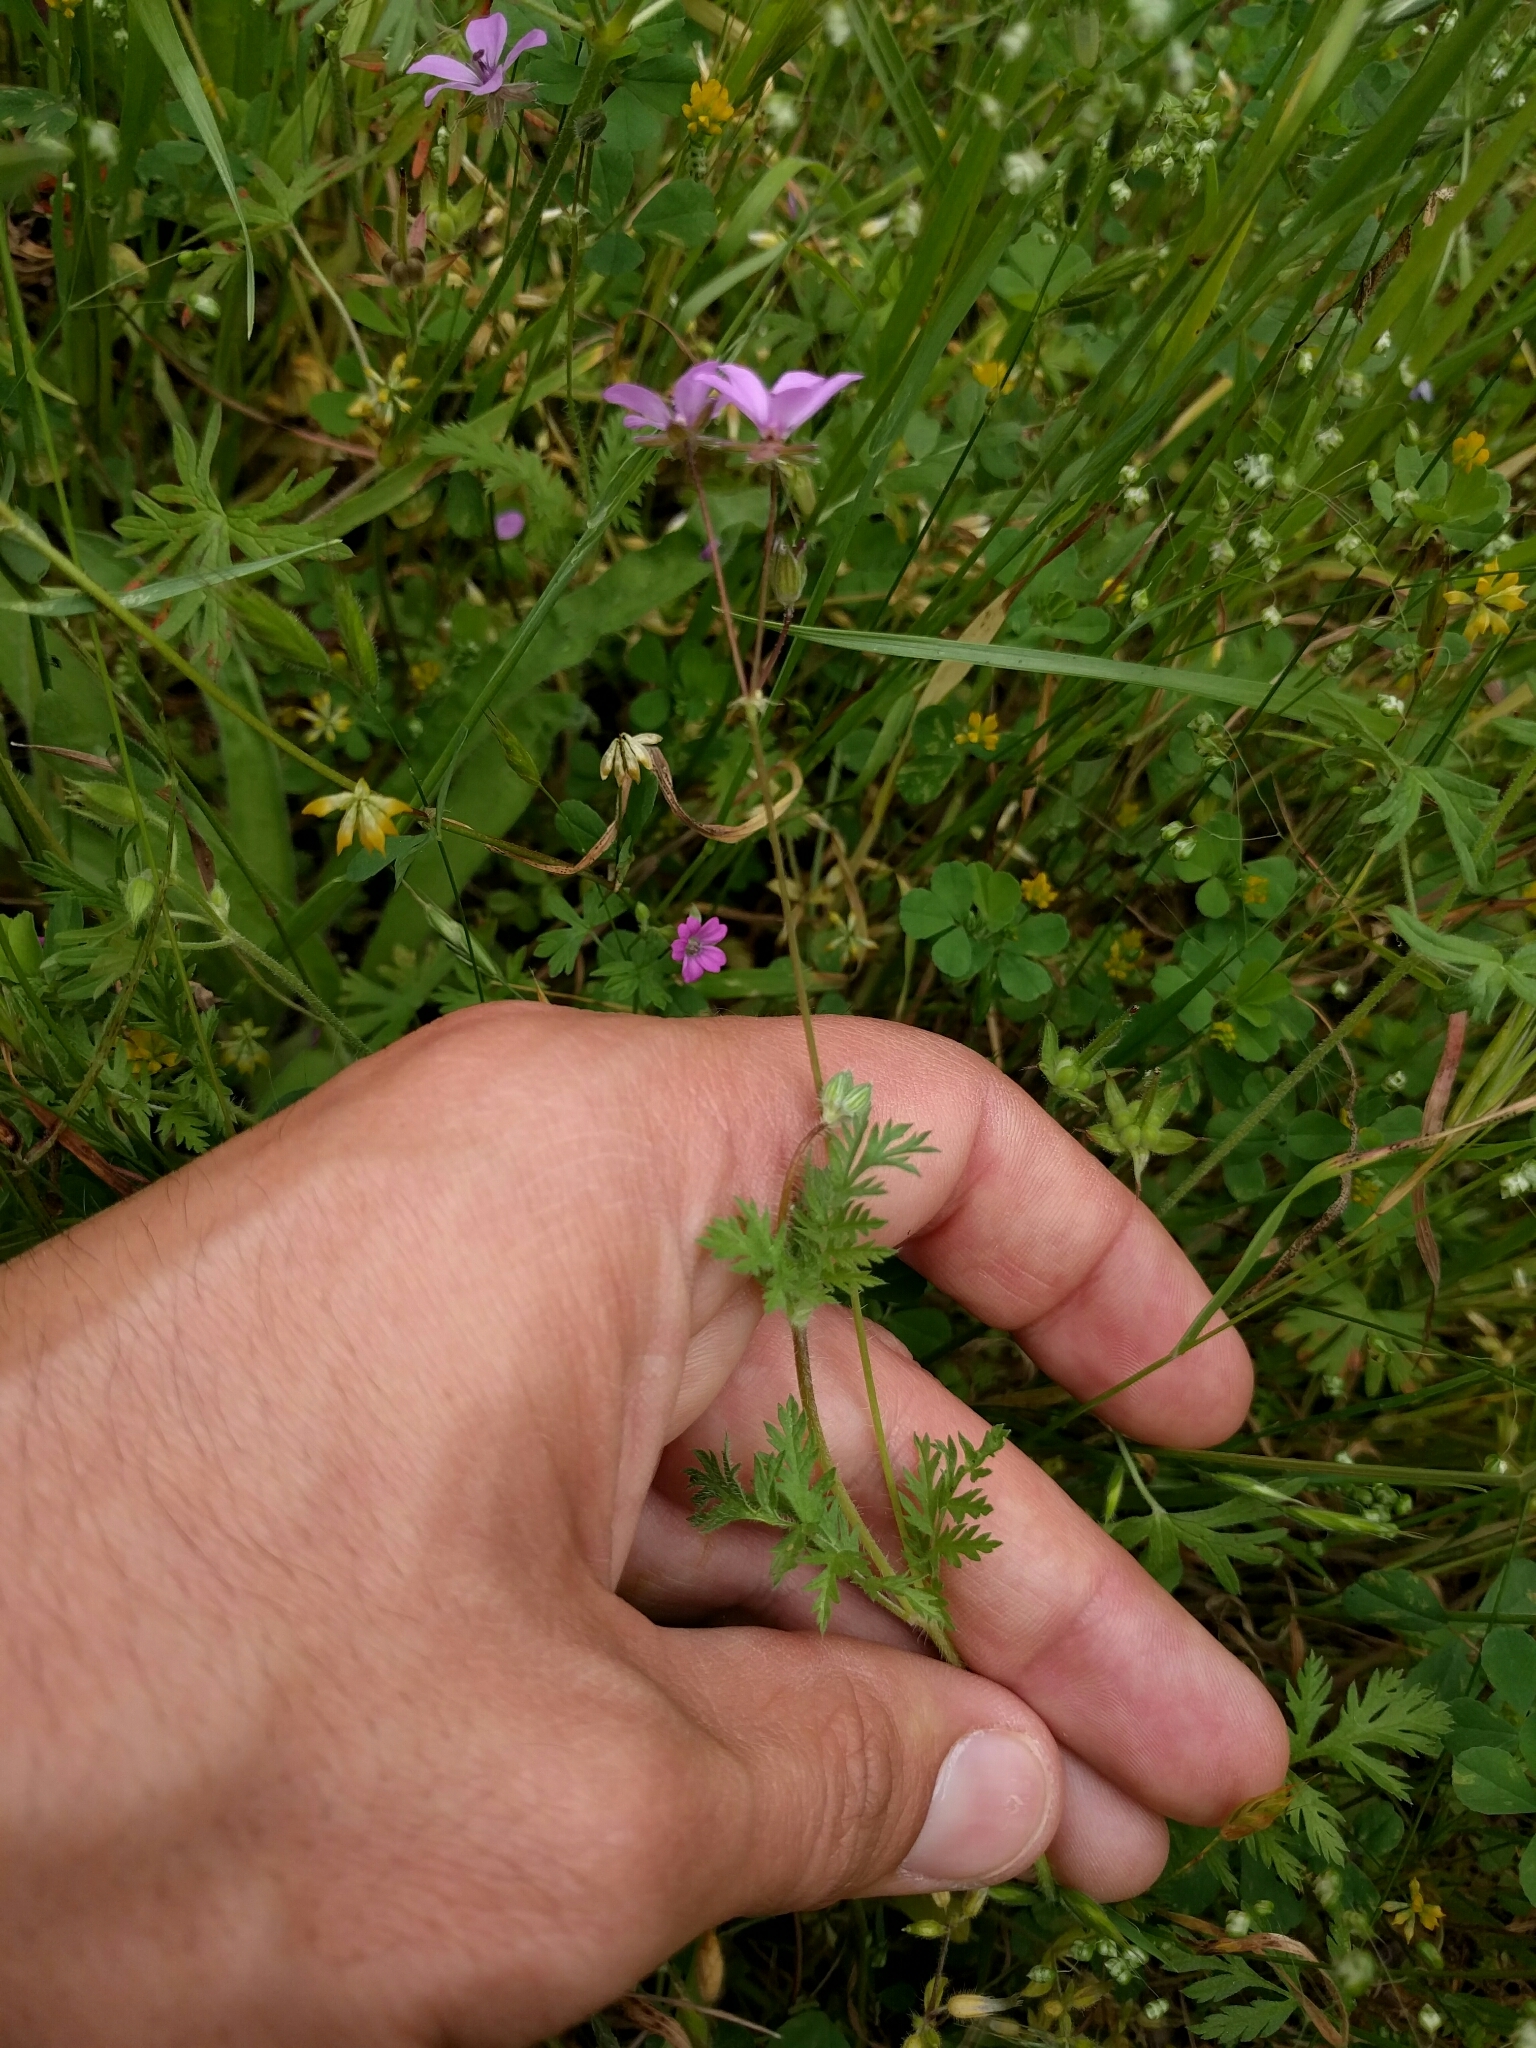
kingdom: Plantae
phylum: Tracheophyta
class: Magnoliopsida
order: Geraniales
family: Geraniaceae
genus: Erodium
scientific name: Erodium cicutarium
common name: Common stork's-bill
